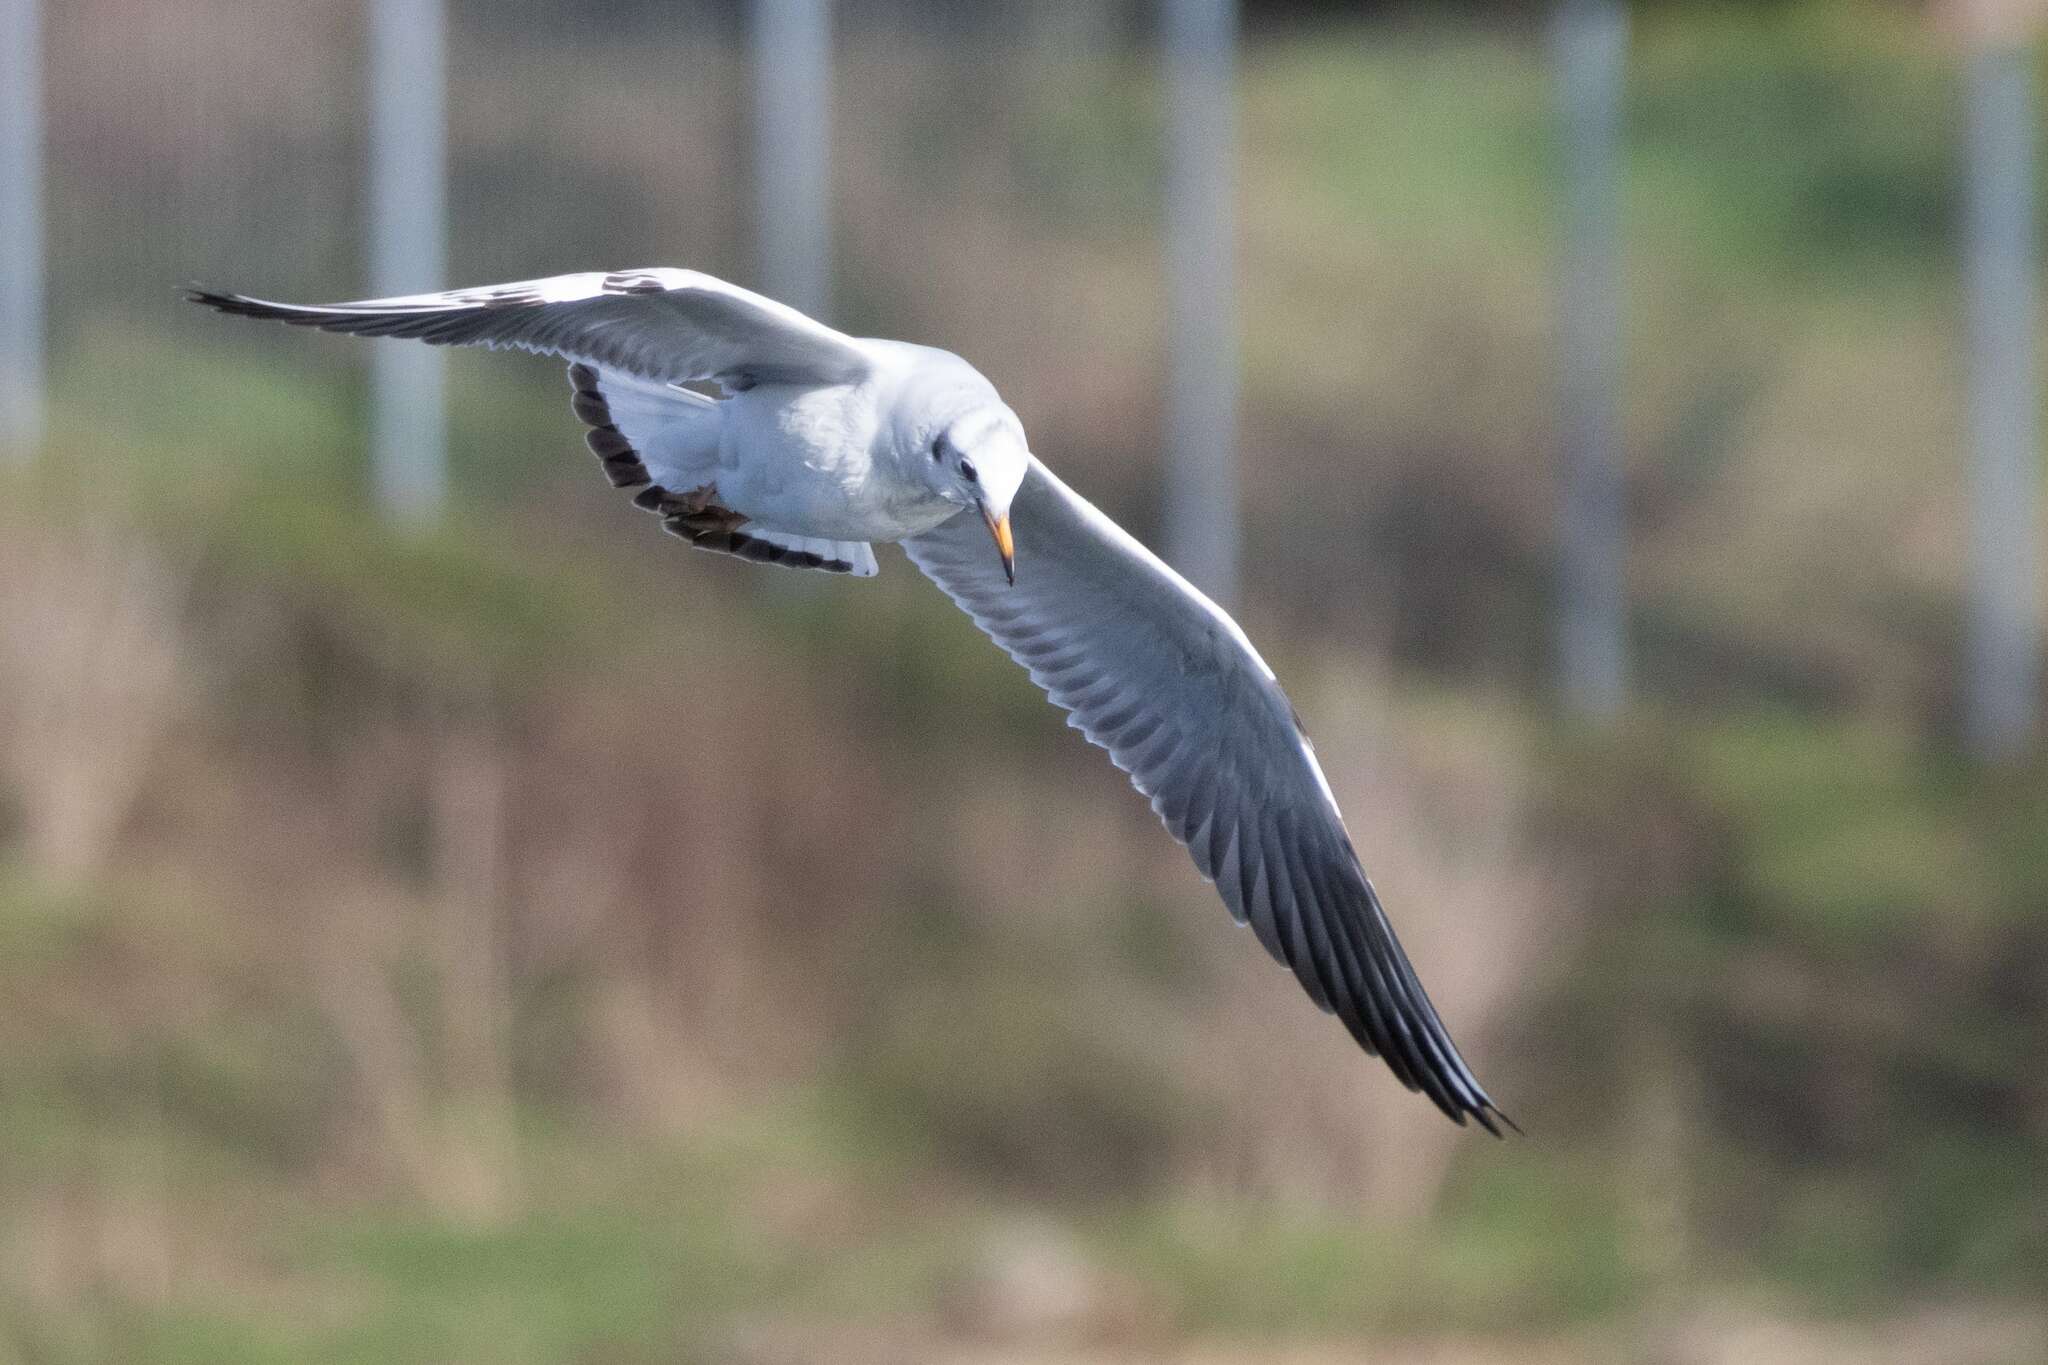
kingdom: Animalia
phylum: Chordata
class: Aves
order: Charadriiformes
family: Laridae
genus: Chroicocephalus
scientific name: Chroicocephalus ridibundus
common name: Black-headed gull
